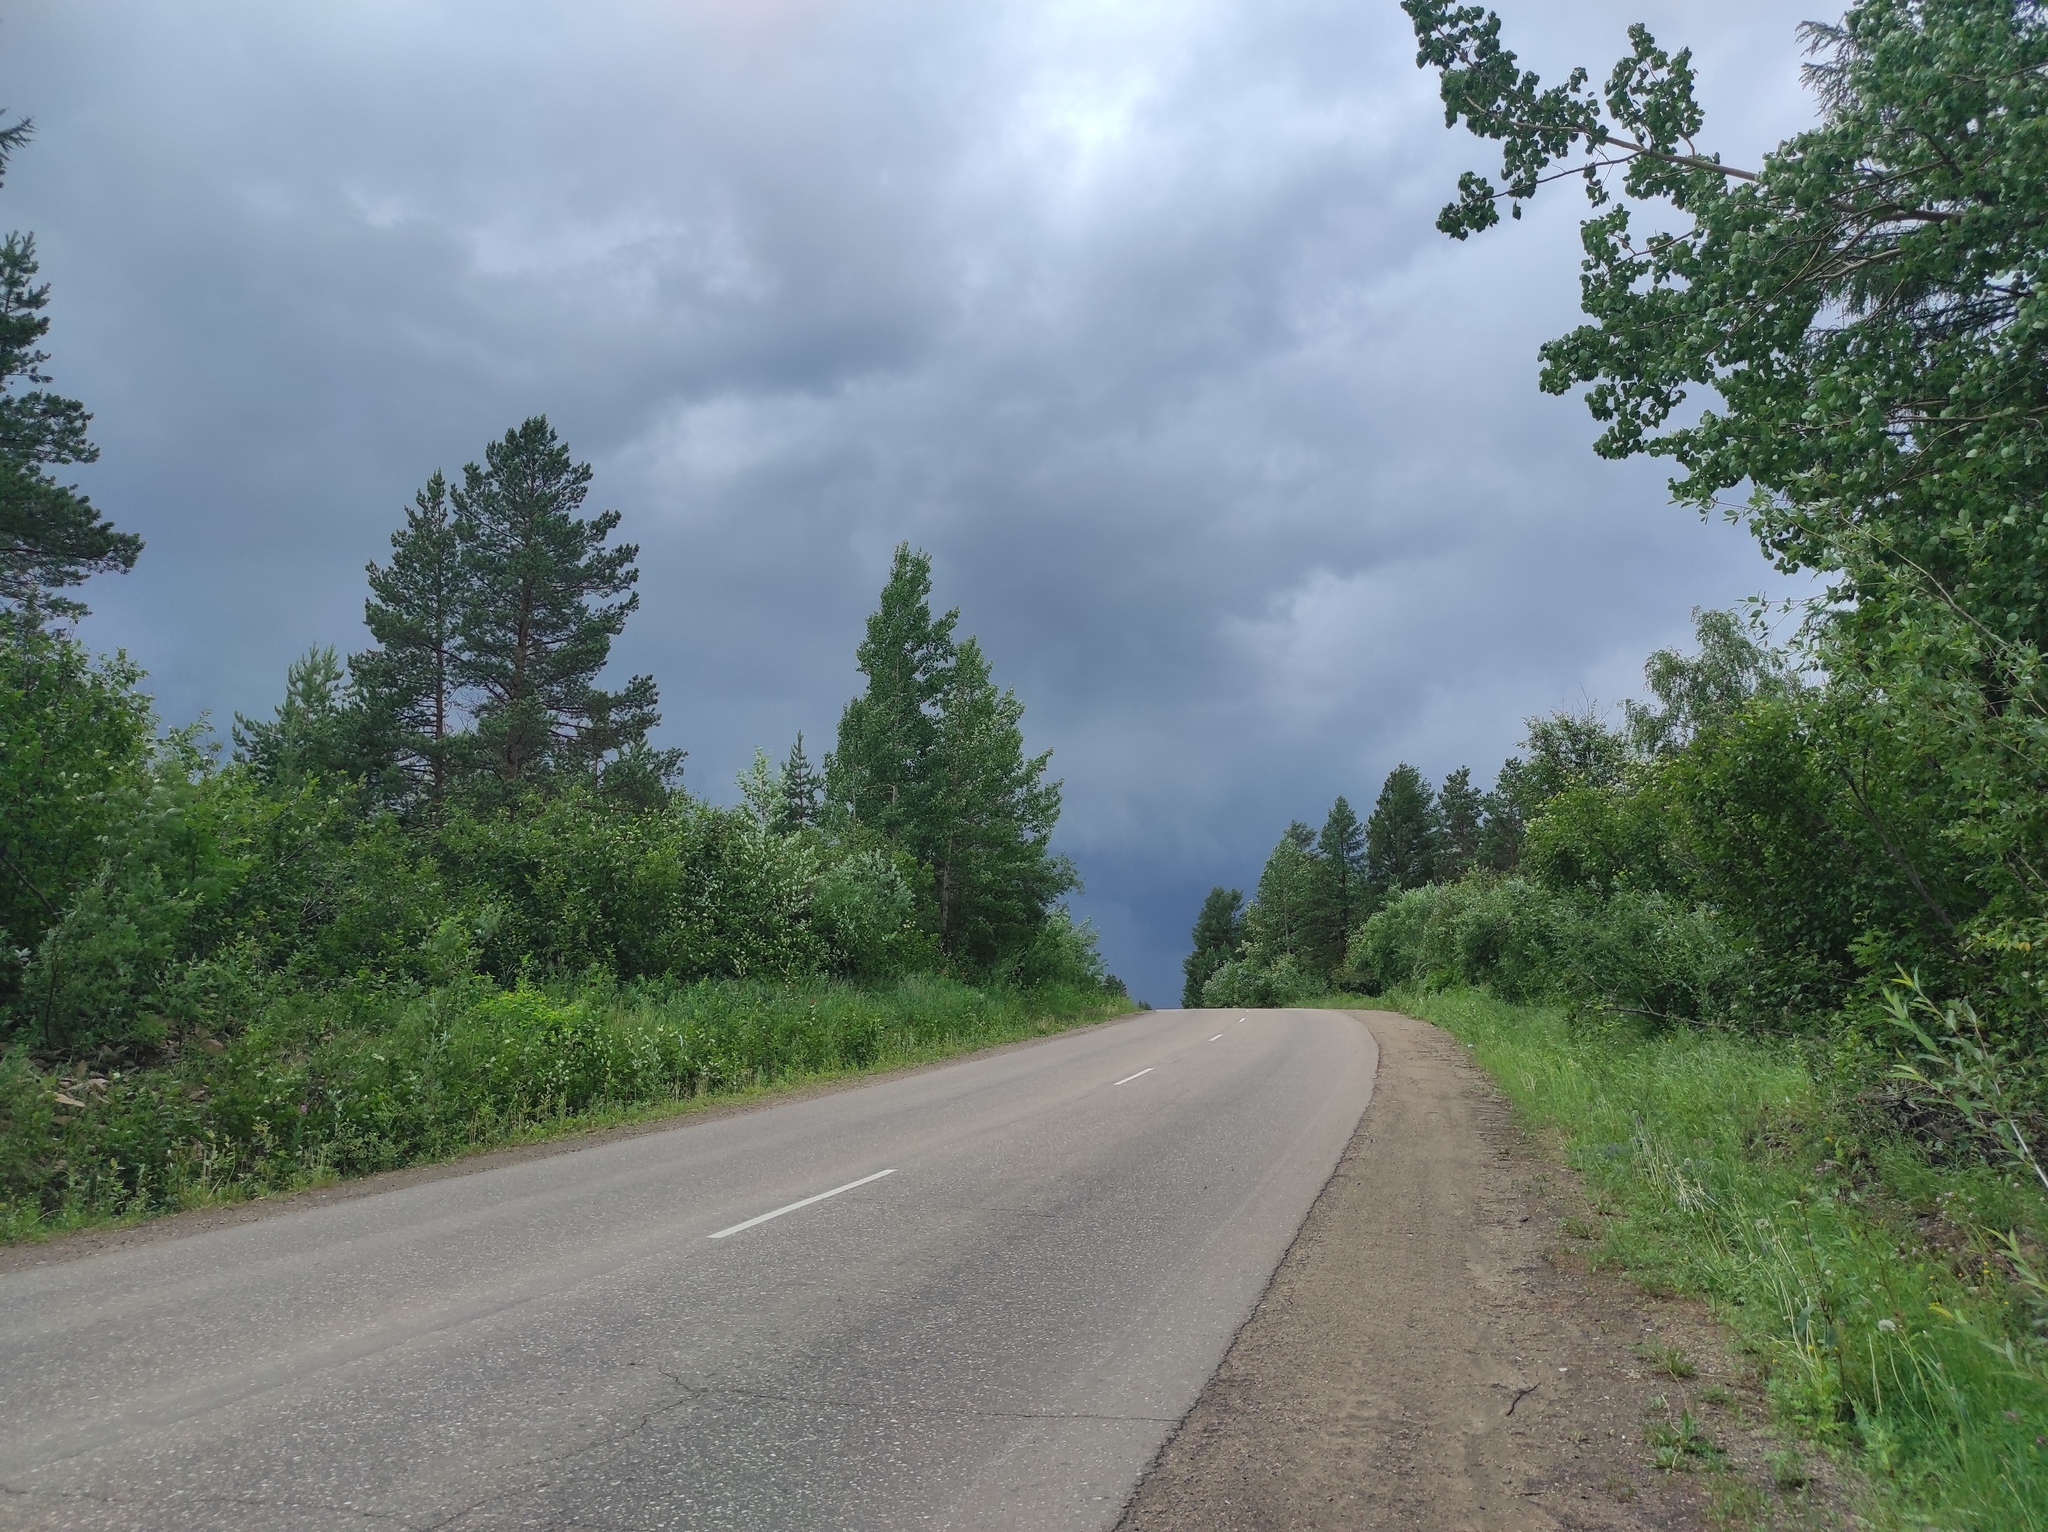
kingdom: Plantae
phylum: Tracheophyta
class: Pinopsida
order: Pinales
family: Pinaceae
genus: Pinus
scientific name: Pinus sylvestris
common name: Scots pine
